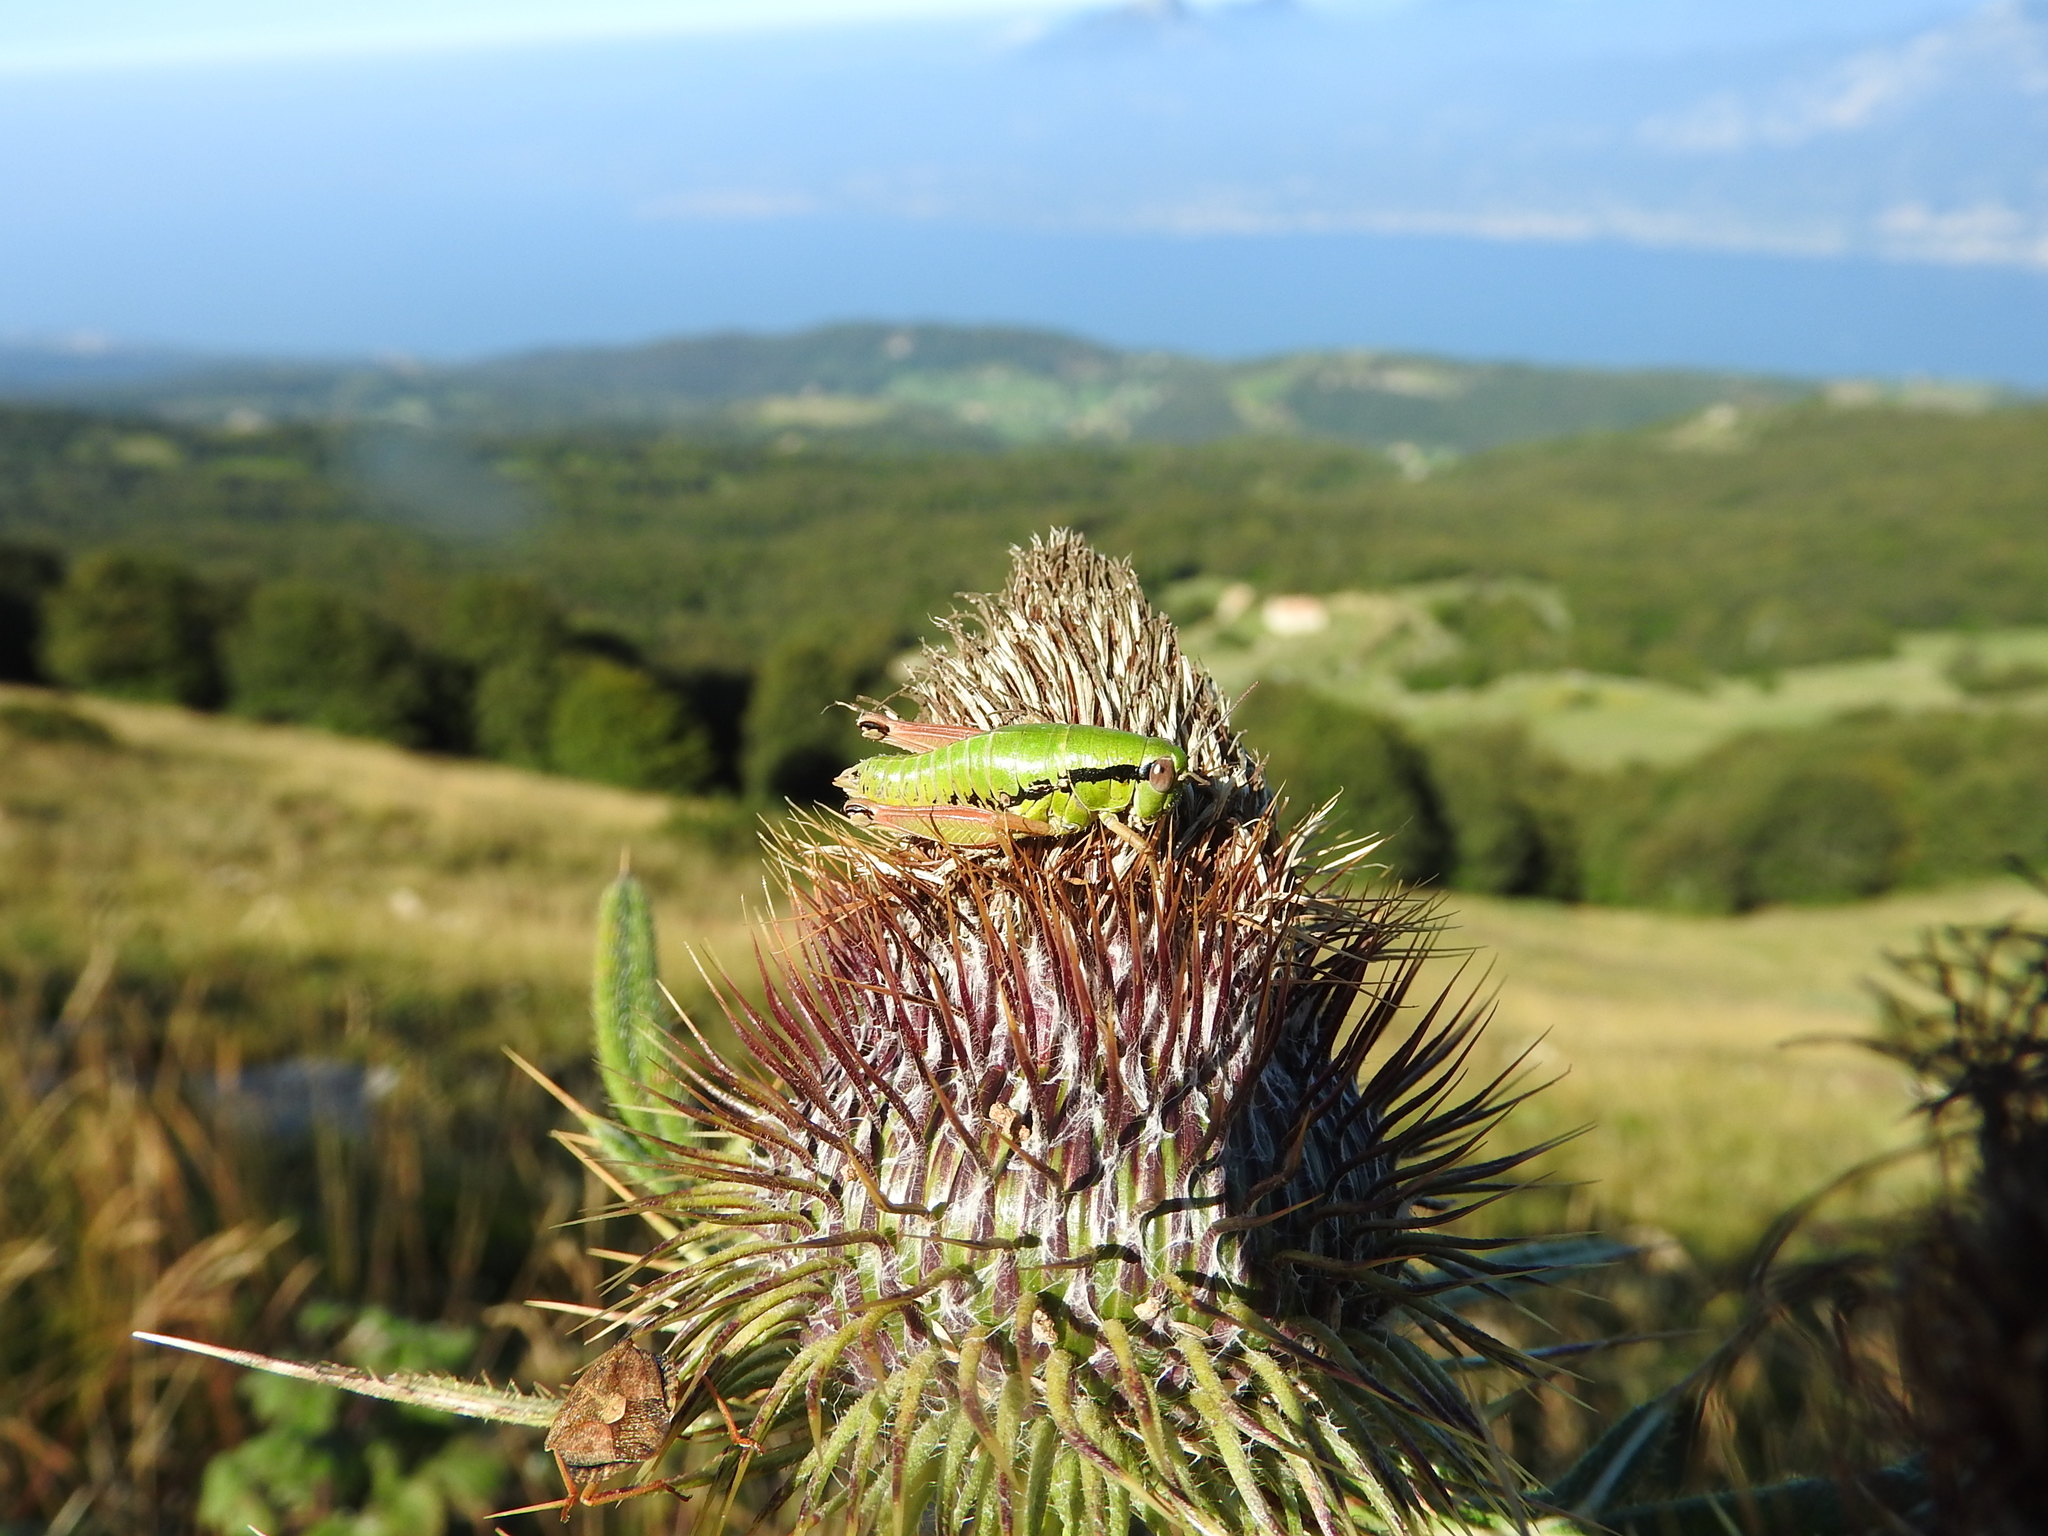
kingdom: Animalia
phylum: Arthropoda
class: Insecta
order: Orthoptera
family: Acrididae
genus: Pseudoprumna
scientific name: Pseudoprumna baldensis
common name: Baldo mountain grasshopper
